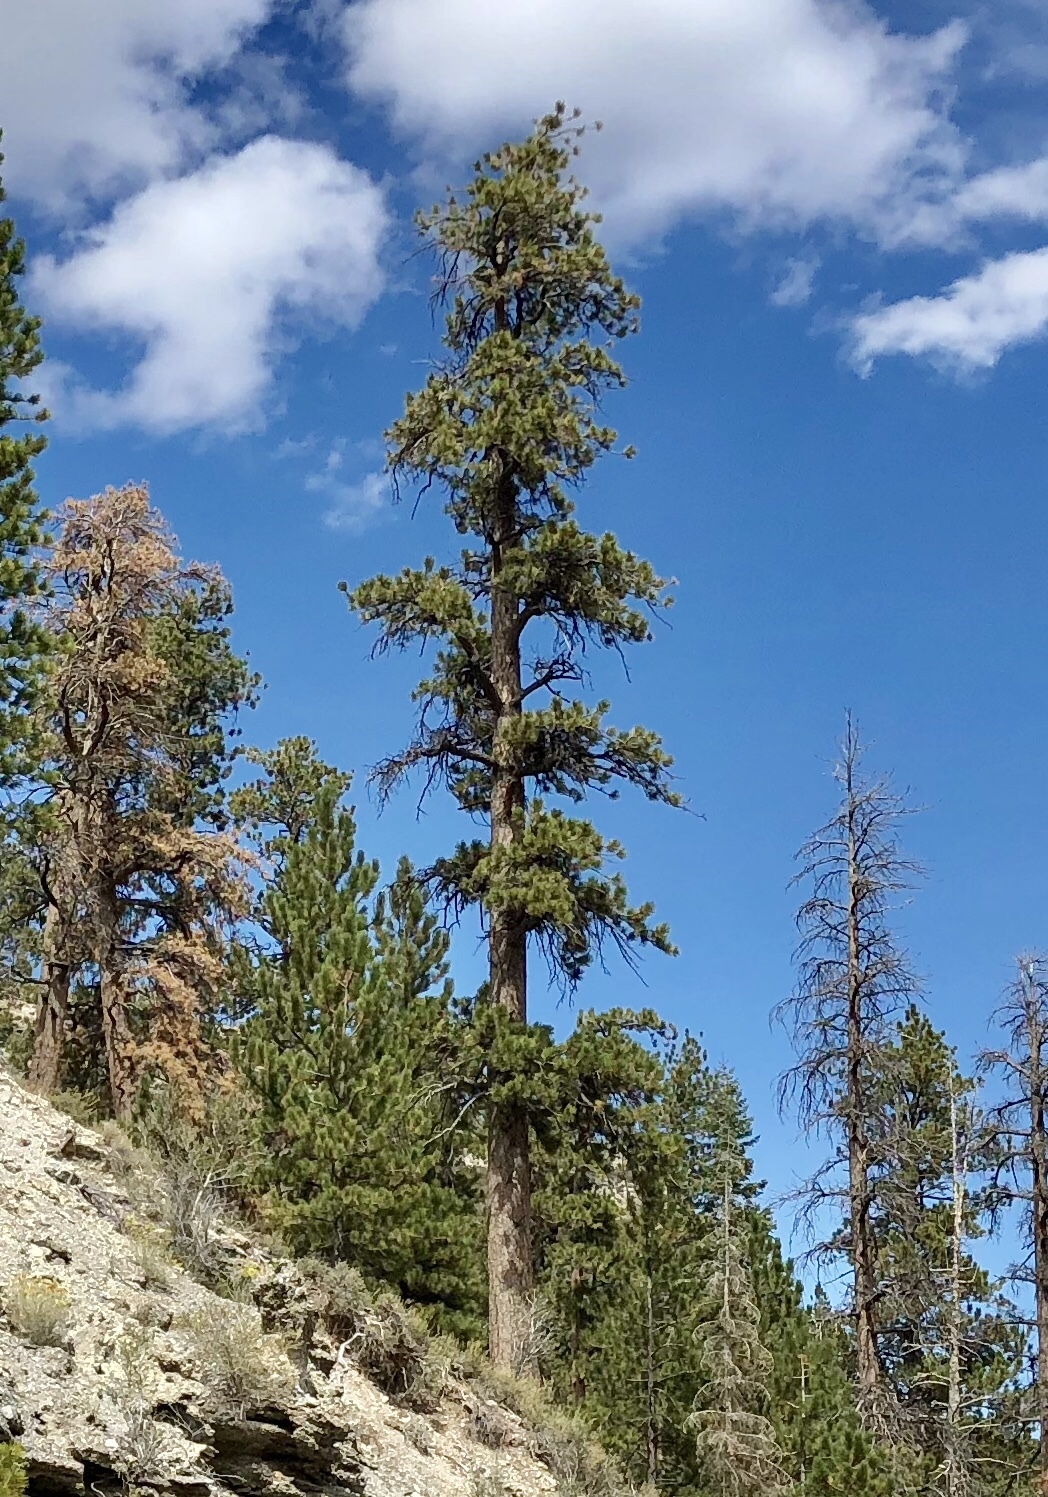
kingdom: Plantae
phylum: Tracheophyta
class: Pinopsida
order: Pinales
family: Pinaceae
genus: Pinus
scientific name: Pinus ponderosa
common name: Western yellow-pine
